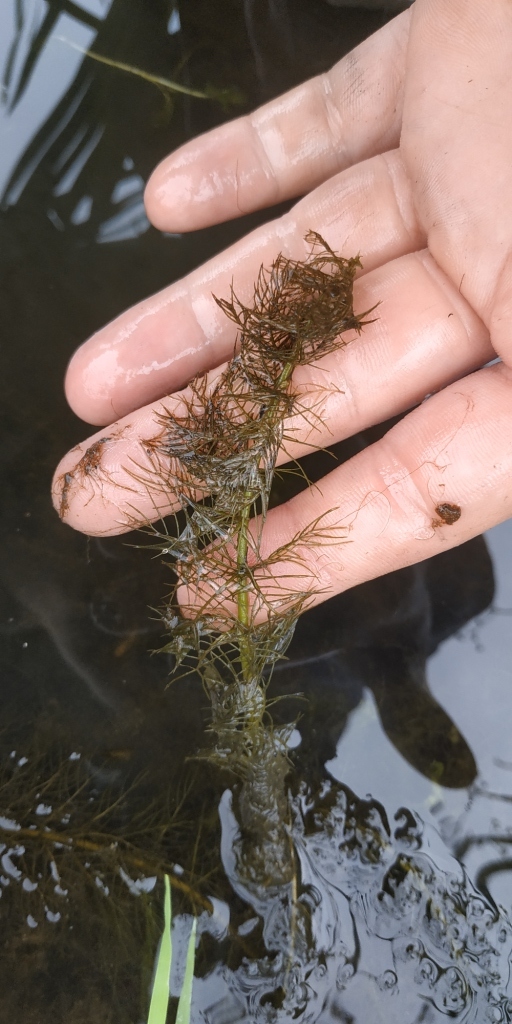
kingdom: Plantae
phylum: Tracheophyta
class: Magnoliopsida
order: Saxifragales
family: Haloragaceae
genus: Myriophyllum
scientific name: Myriophyllum verticillatum
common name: Whorled water-milfoil
